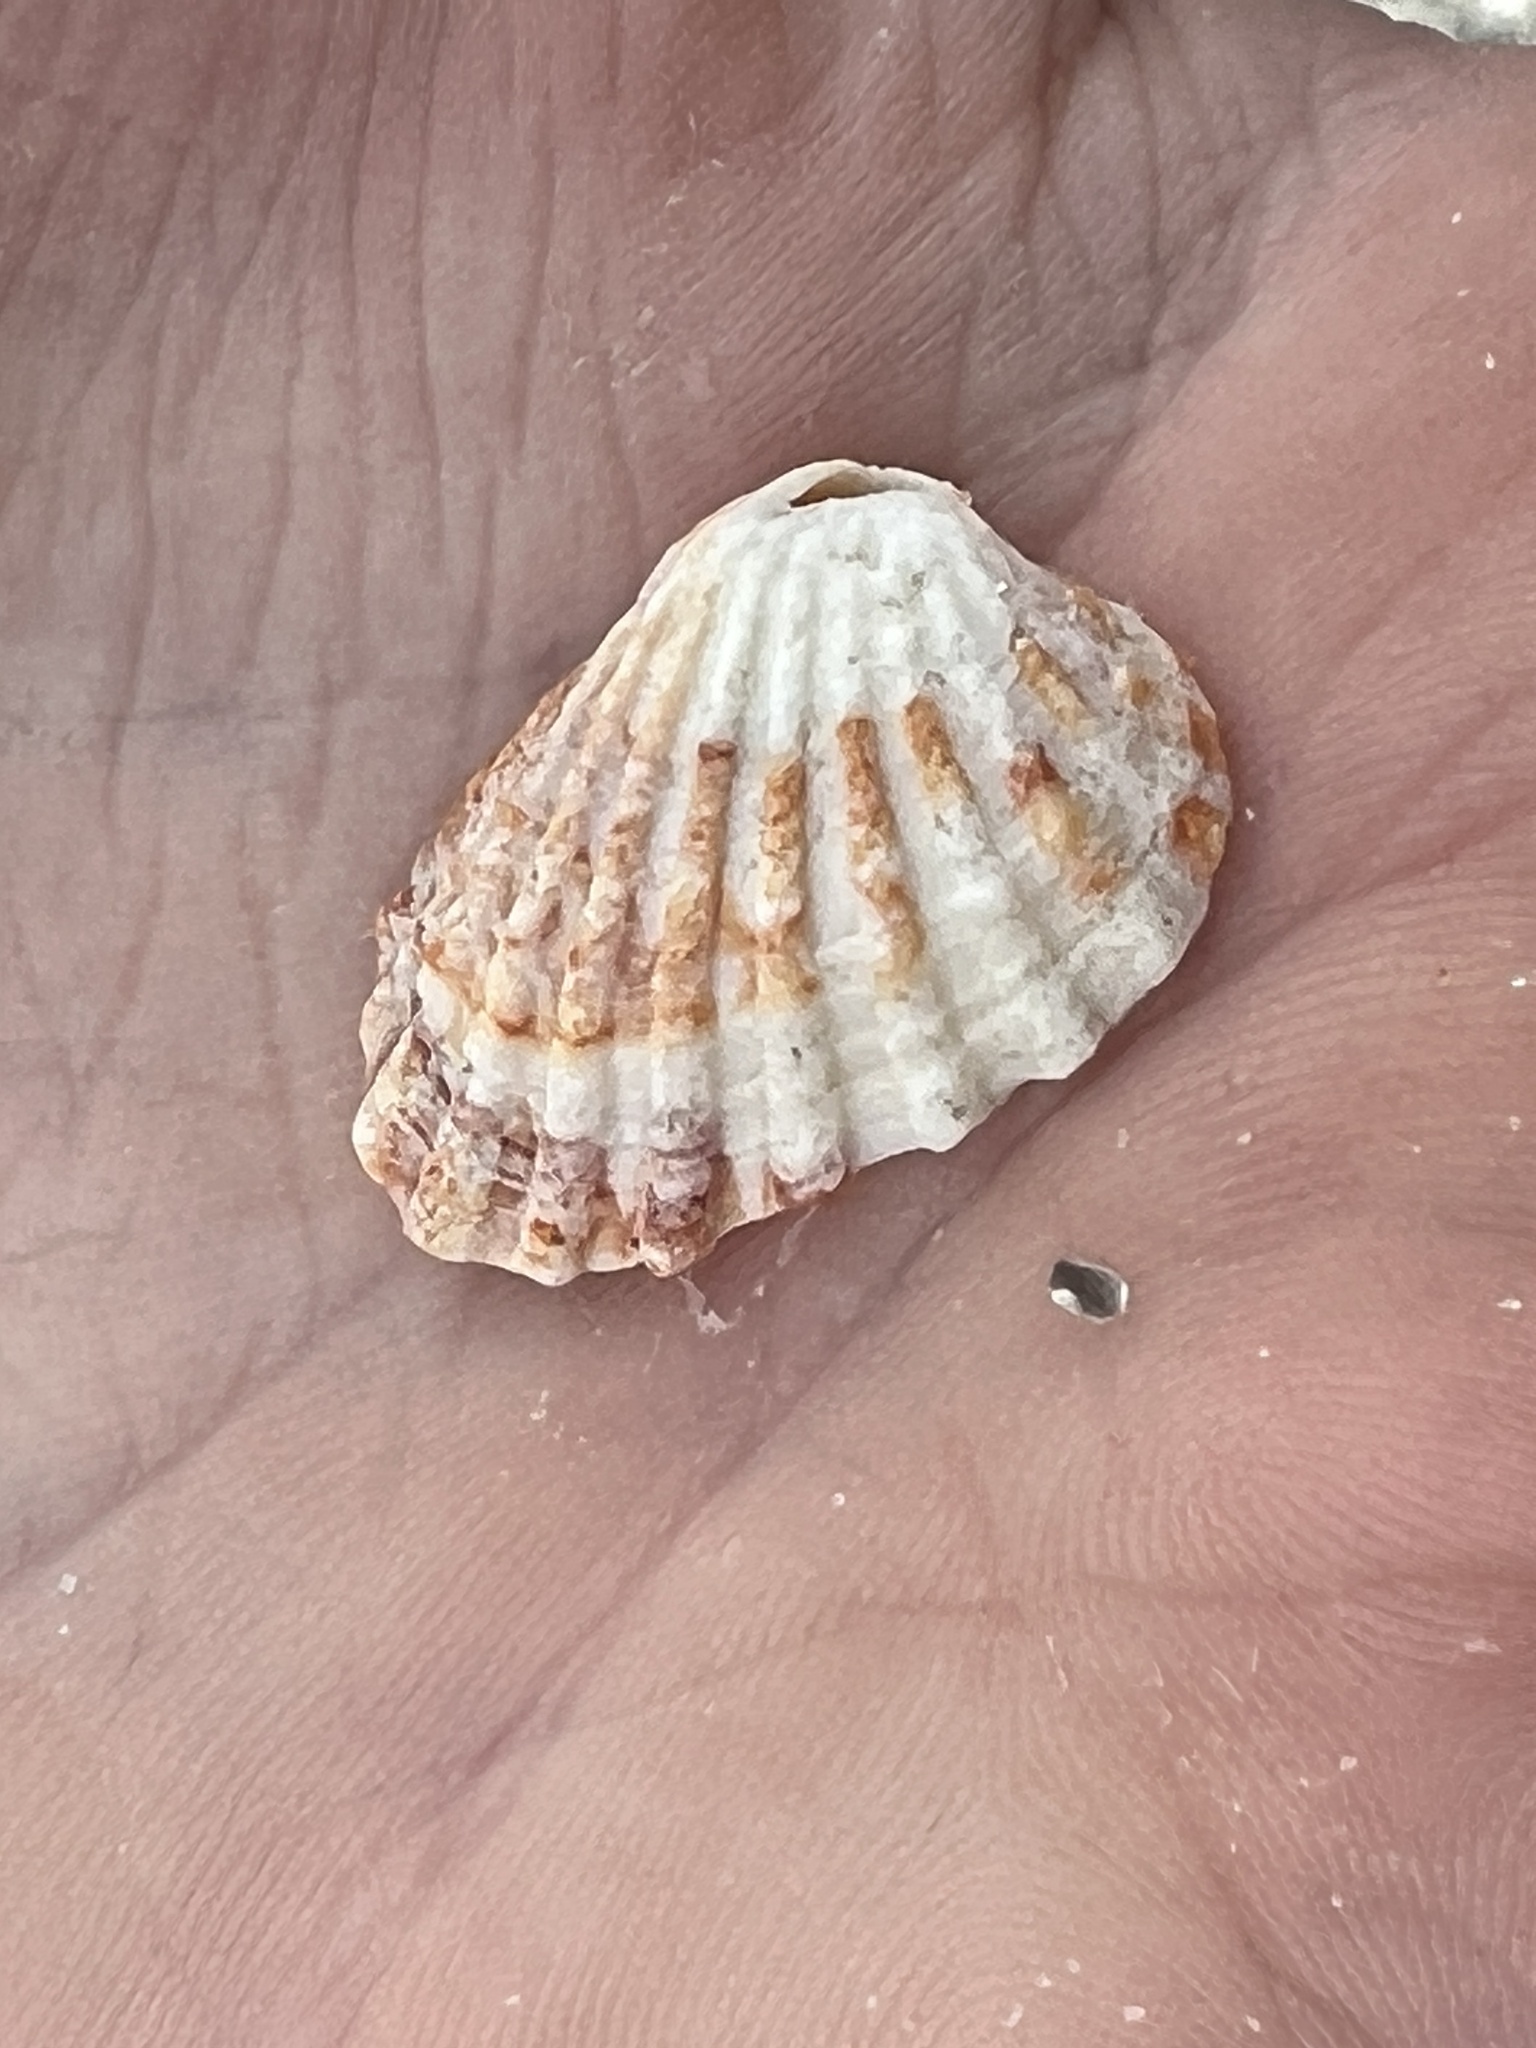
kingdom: Animalia
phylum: Mollusca
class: Bivalvia
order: Carditida
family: Carditidae
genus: Cardites
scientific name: Cardites floridanus
